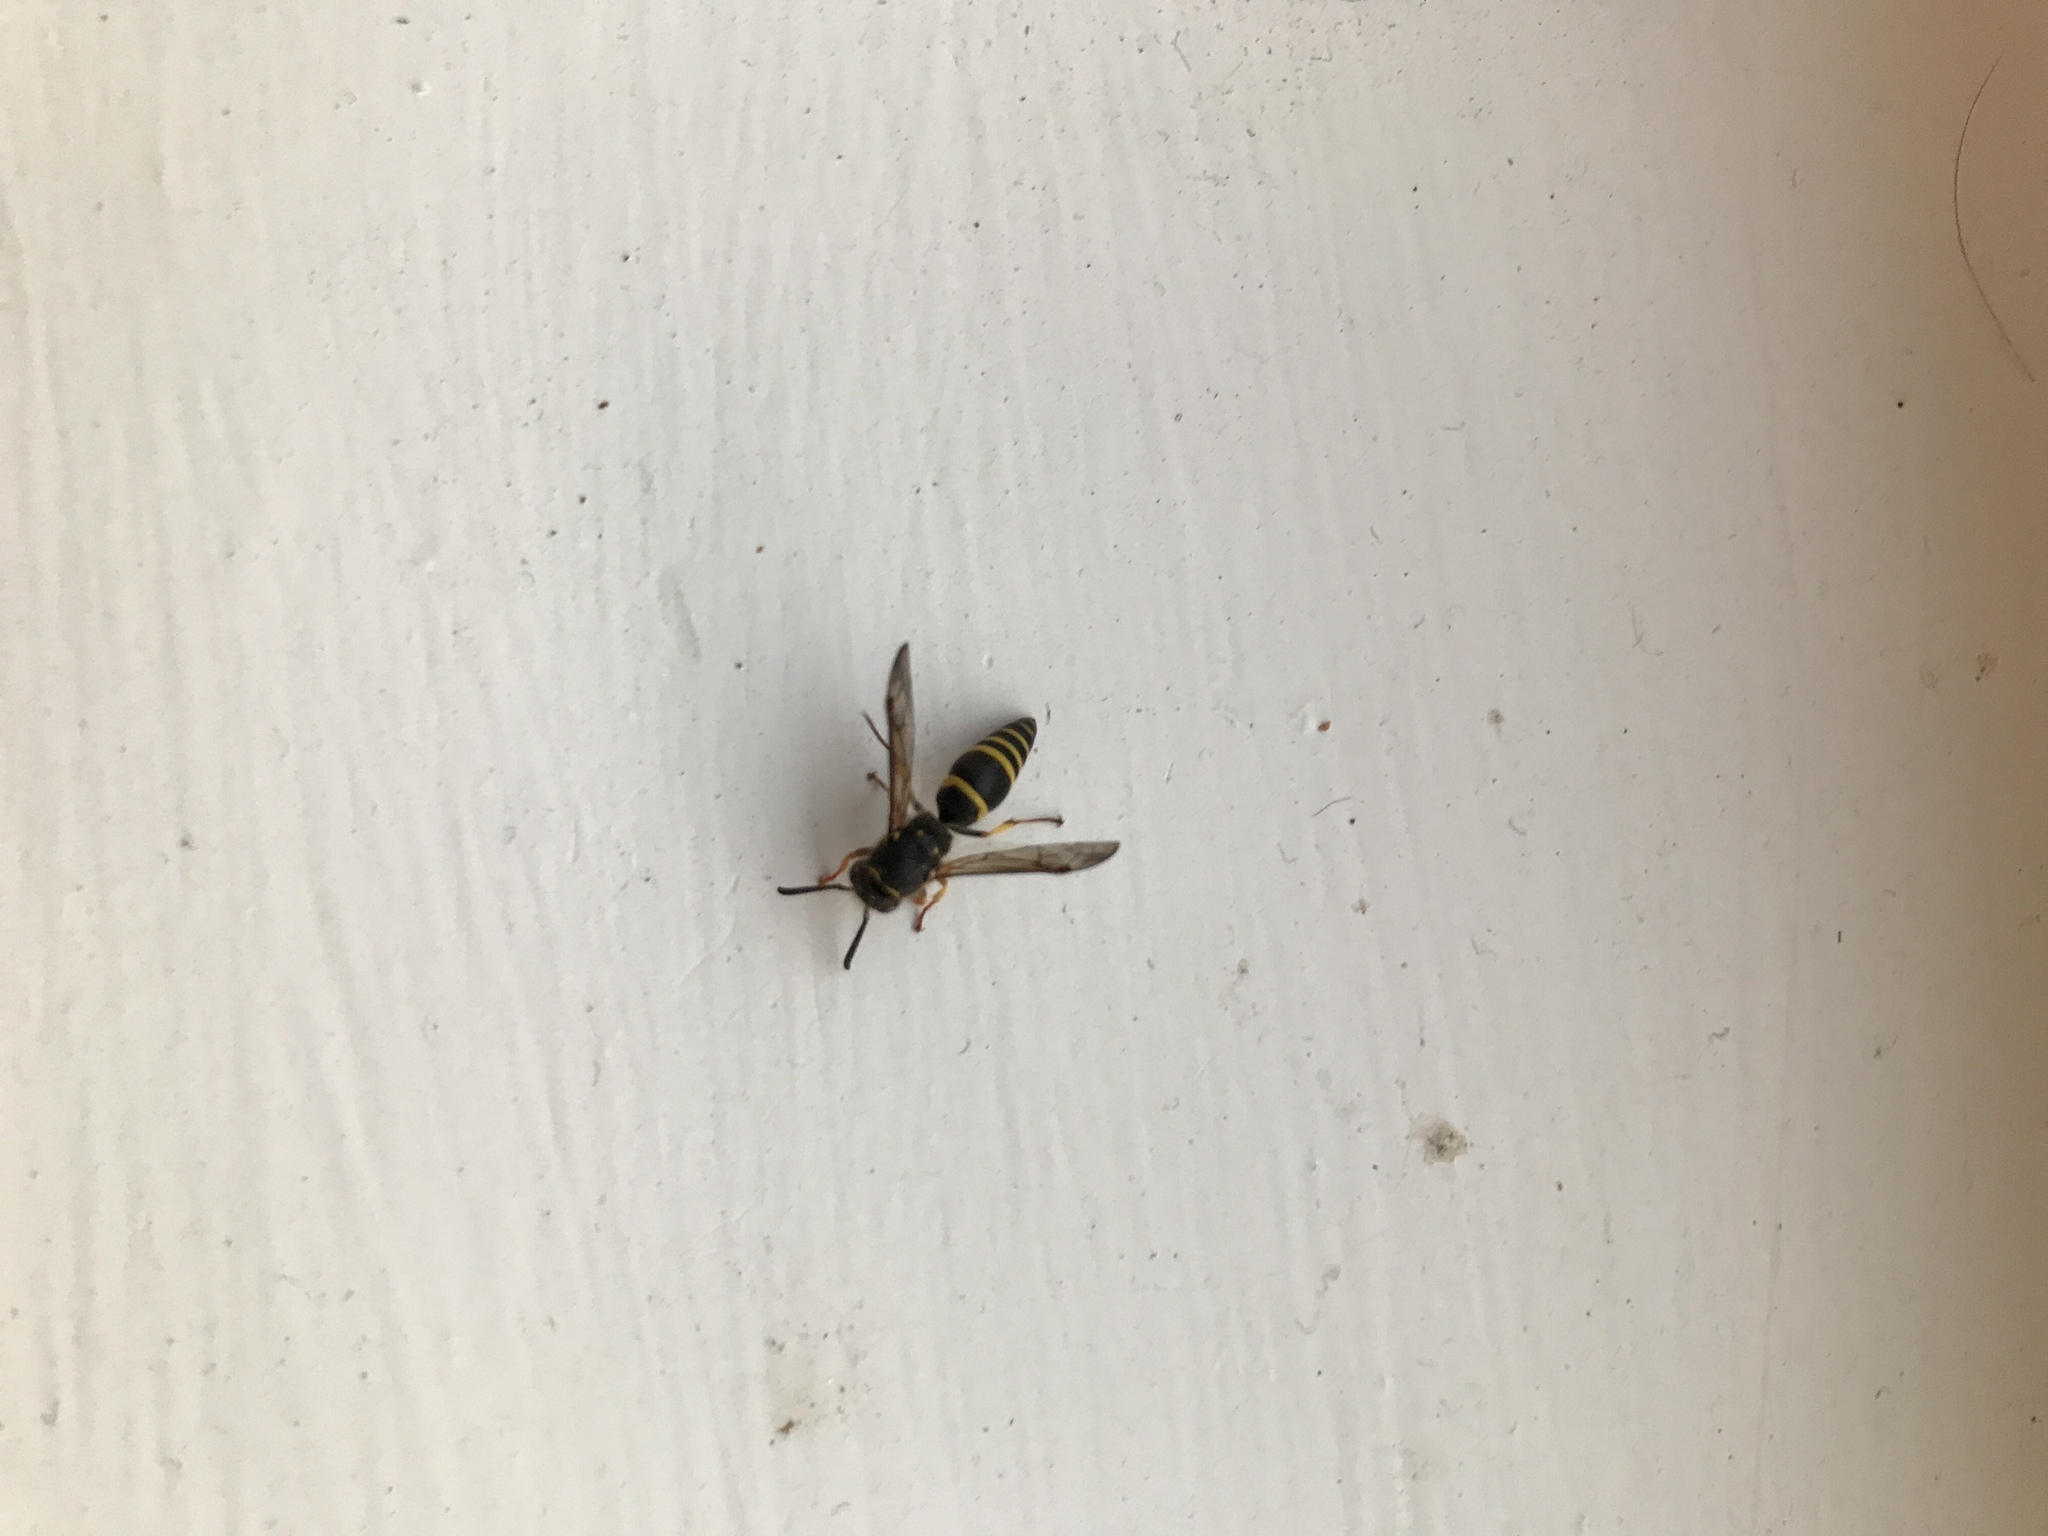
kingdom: Animalia
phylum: Arthropoda
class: Insecta
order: Hymenoptera
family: Vespidae
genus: Ancistrocerus
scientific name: Ancistrocerus gazella
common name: European tube wasp
